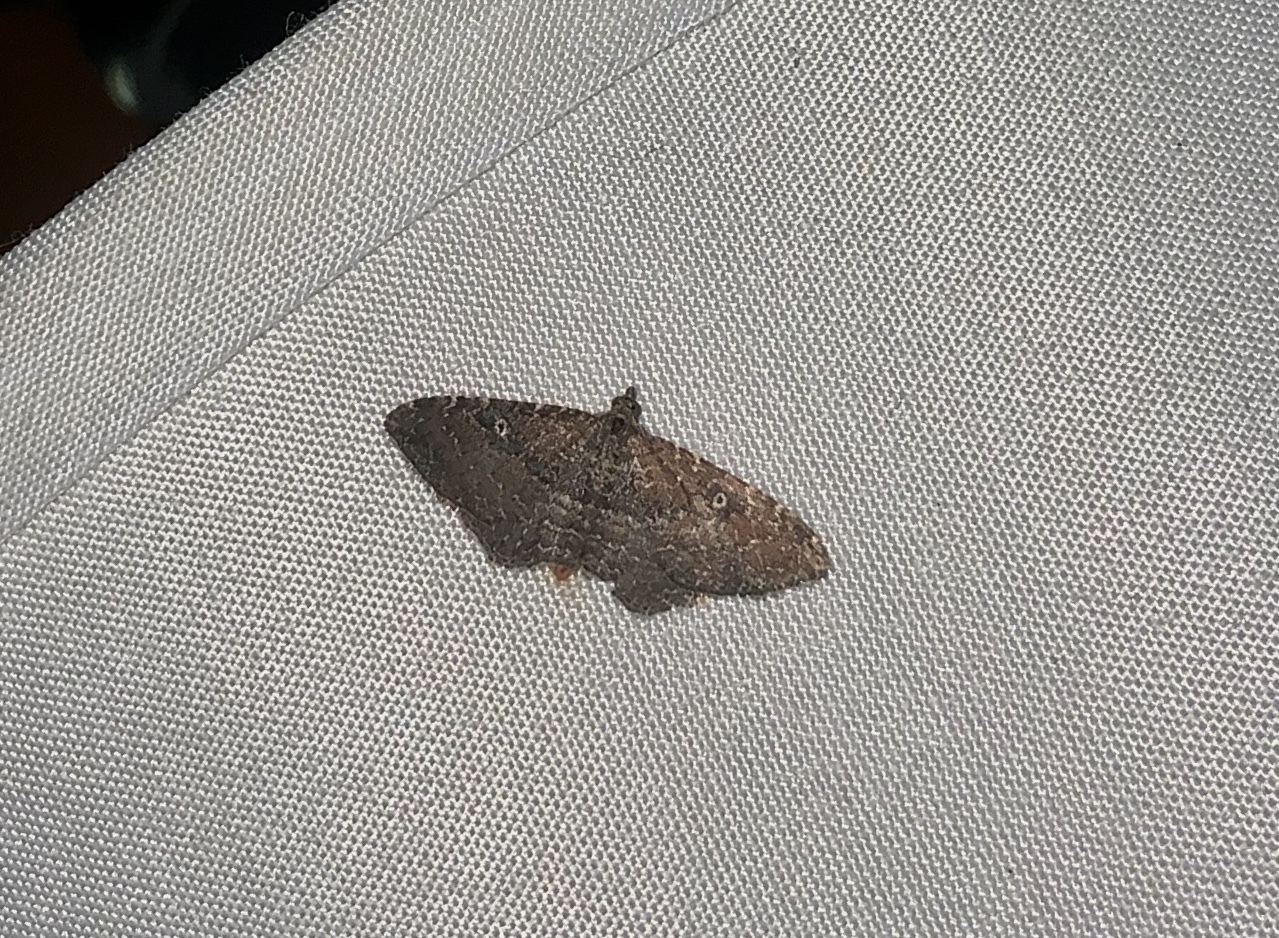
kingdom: Animalia
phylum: Arthropoda
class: Insecta
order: Lepidoptera
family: Geometridae
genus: Orthonama
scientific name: Orthonama obstipata
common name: The gem
